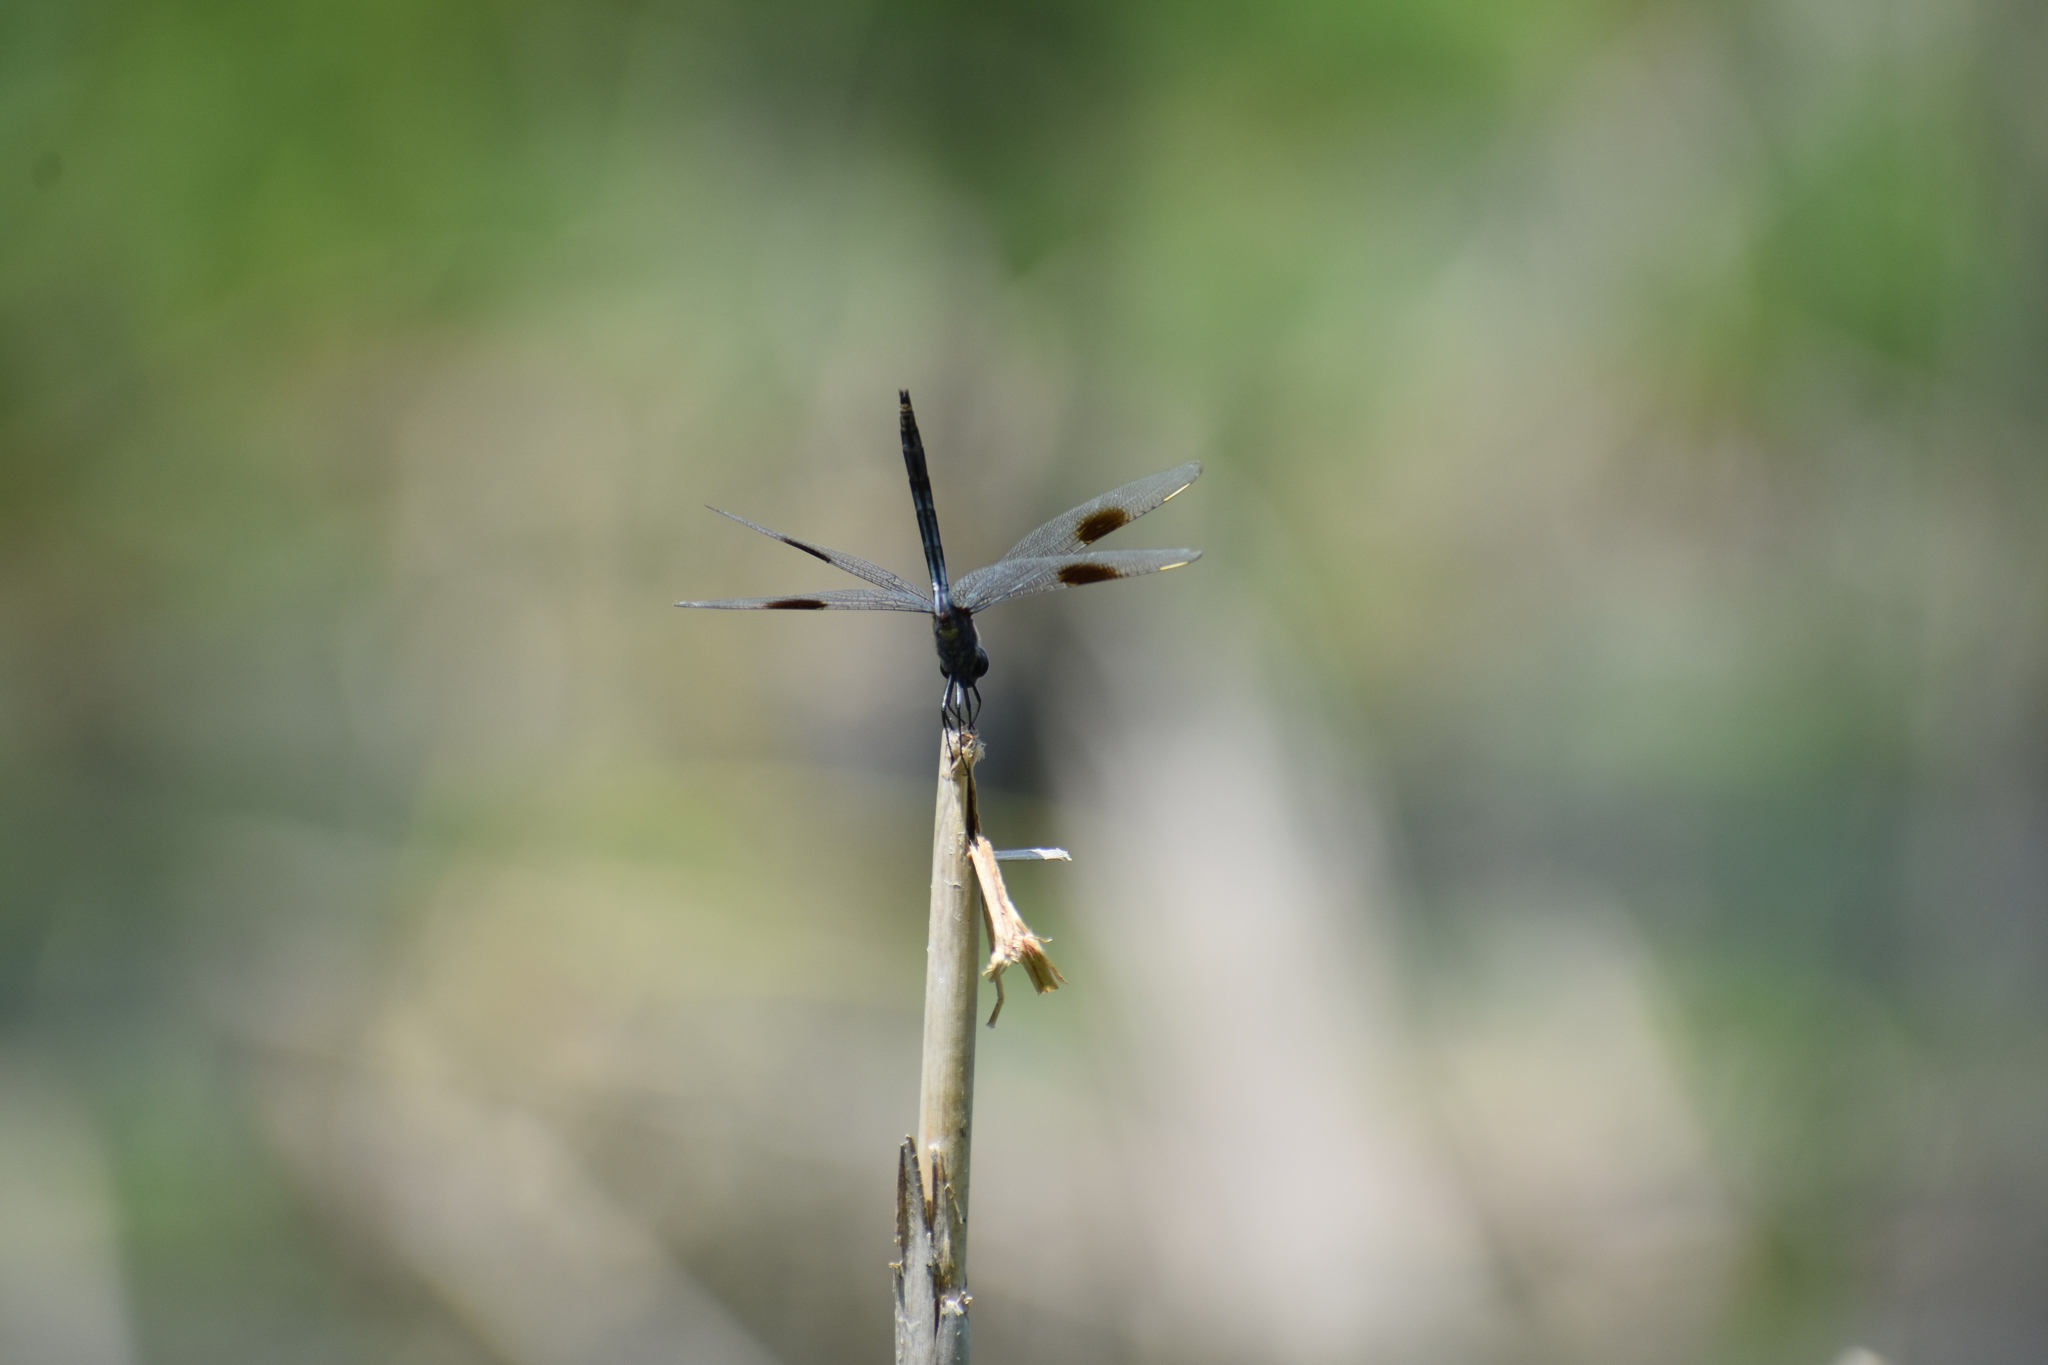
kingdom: Animalia
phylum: Arthropoda
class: Insecta
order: Odonata
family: Libellulidae
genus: Brachymesia
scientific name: Brachymesia gravida
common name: Four-spotted pennant
